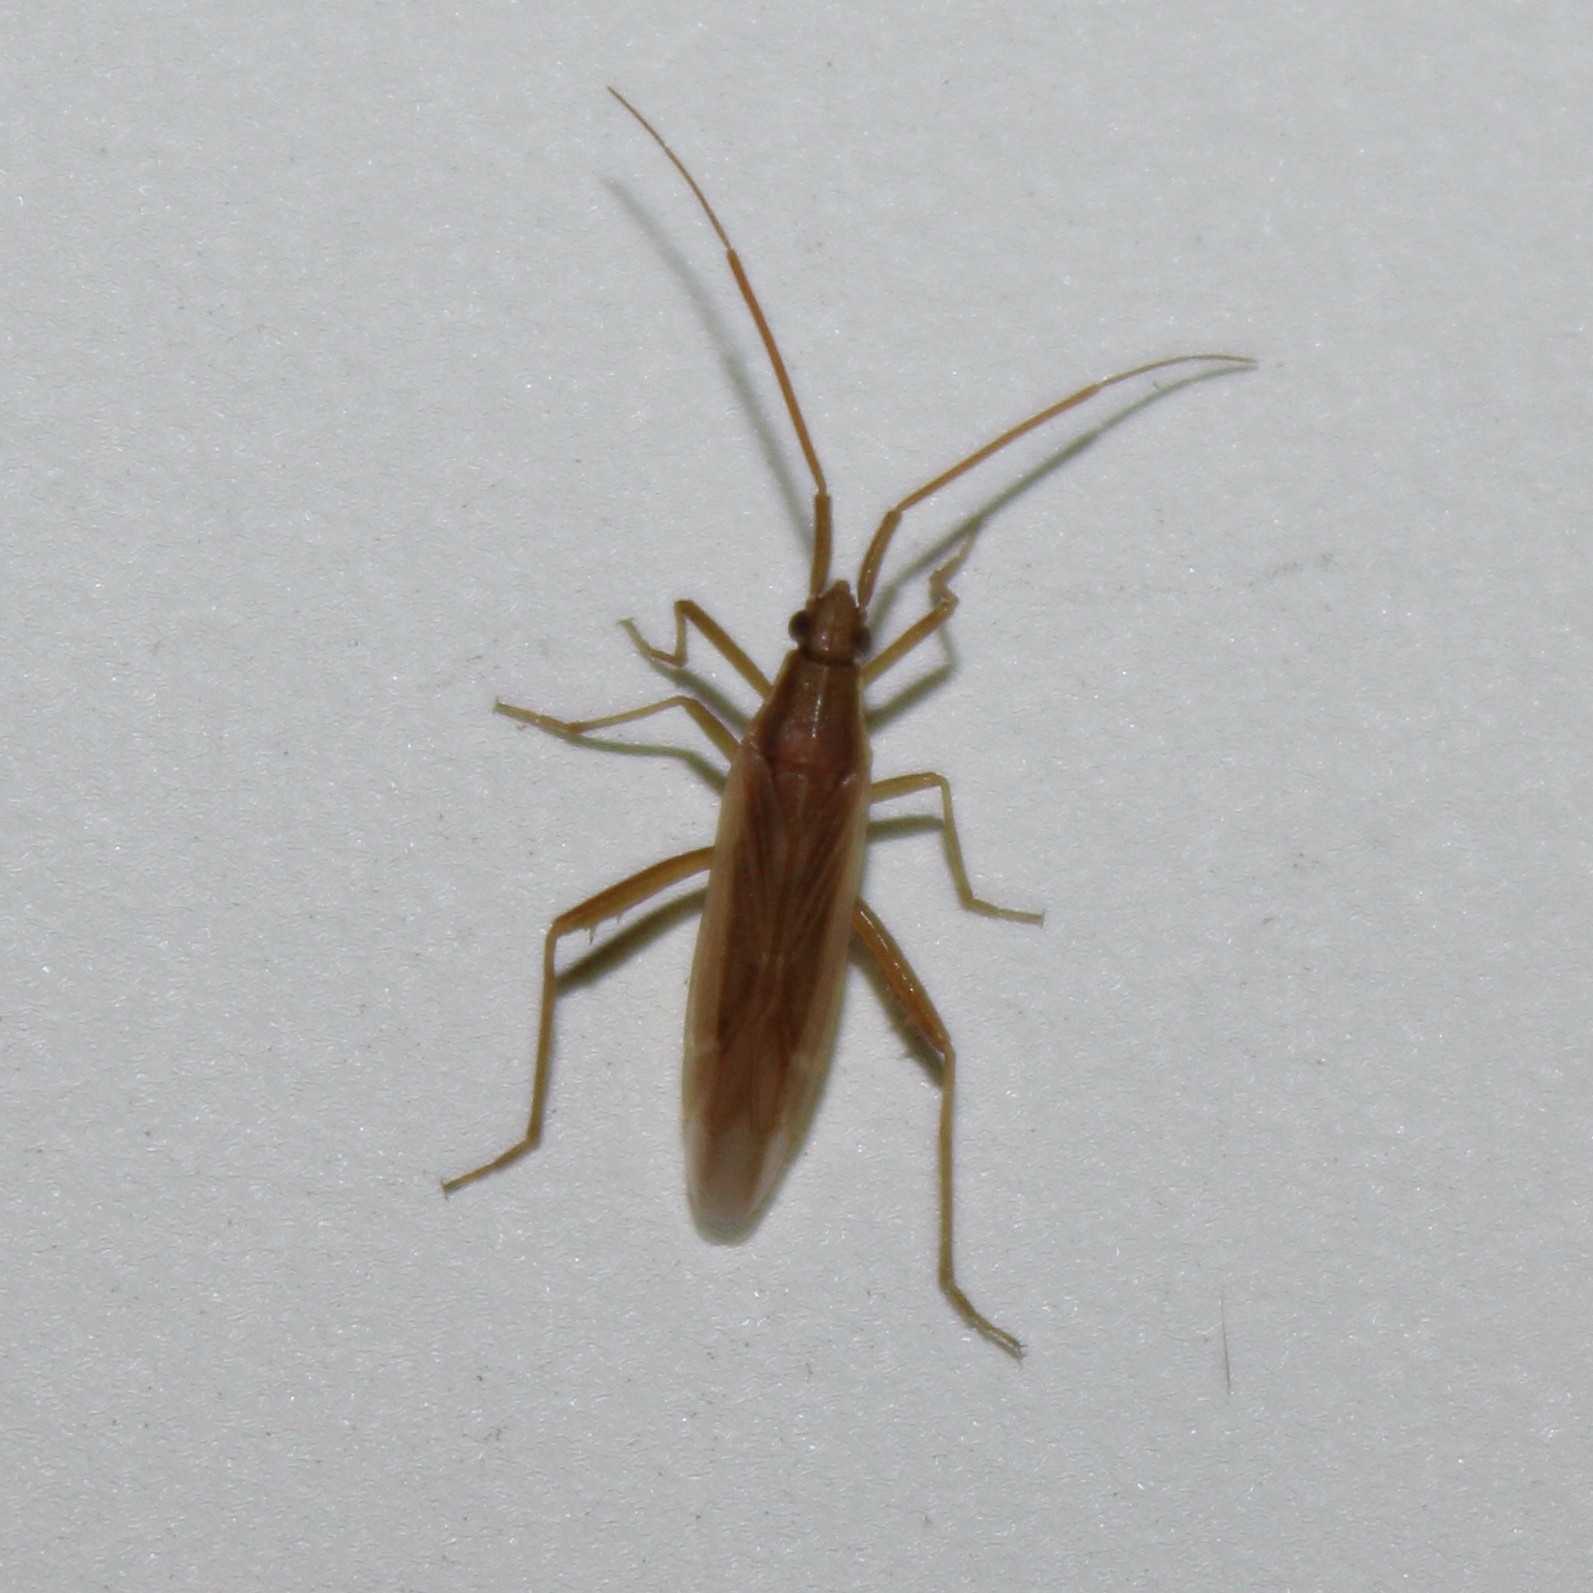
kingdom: Animalia
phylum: Arthropoda
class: Insecta
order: Hemiptera
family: Miridae
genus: Stenodema
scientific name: Stenodema trispinosa
